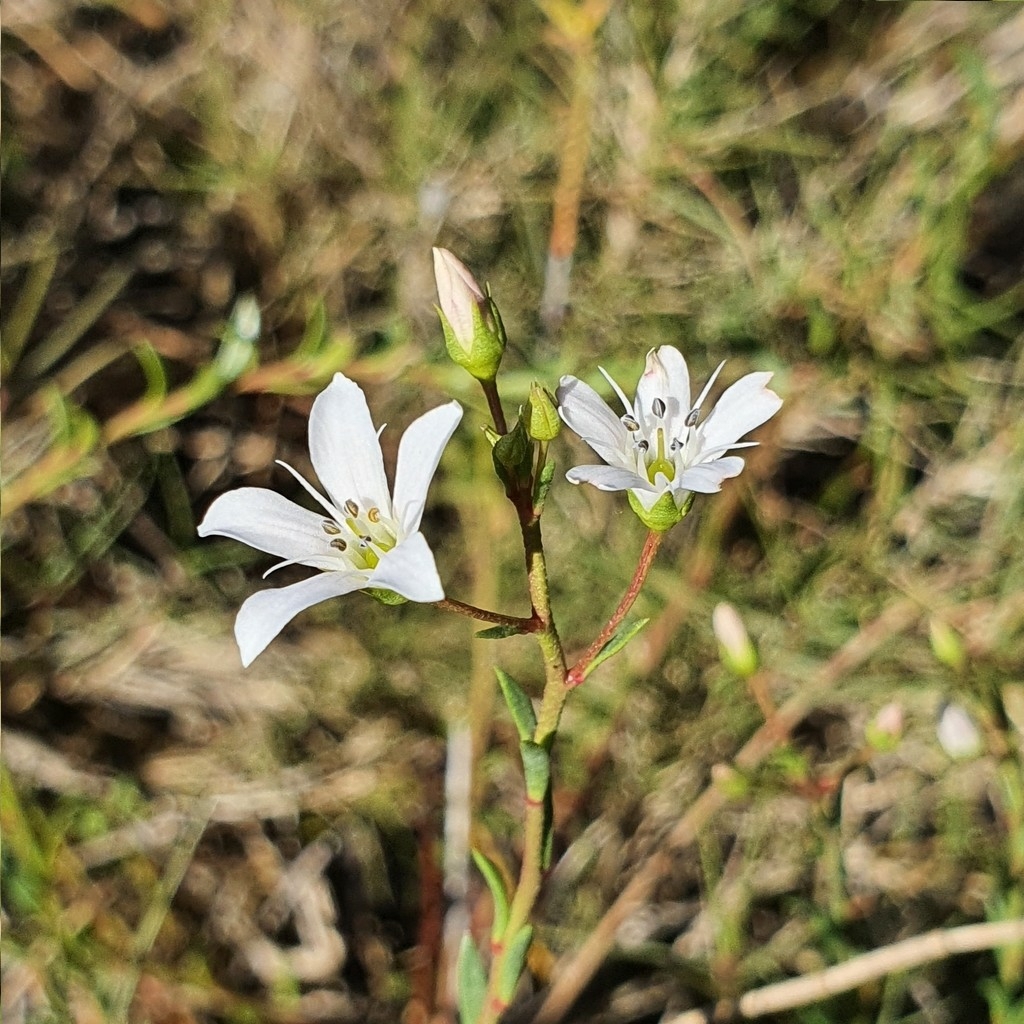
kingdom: Plantae
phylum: Tracheophyta
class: Magnoliopsida
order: Ericales
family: Primulaceae
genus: Samolus
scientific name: Samolus repens
